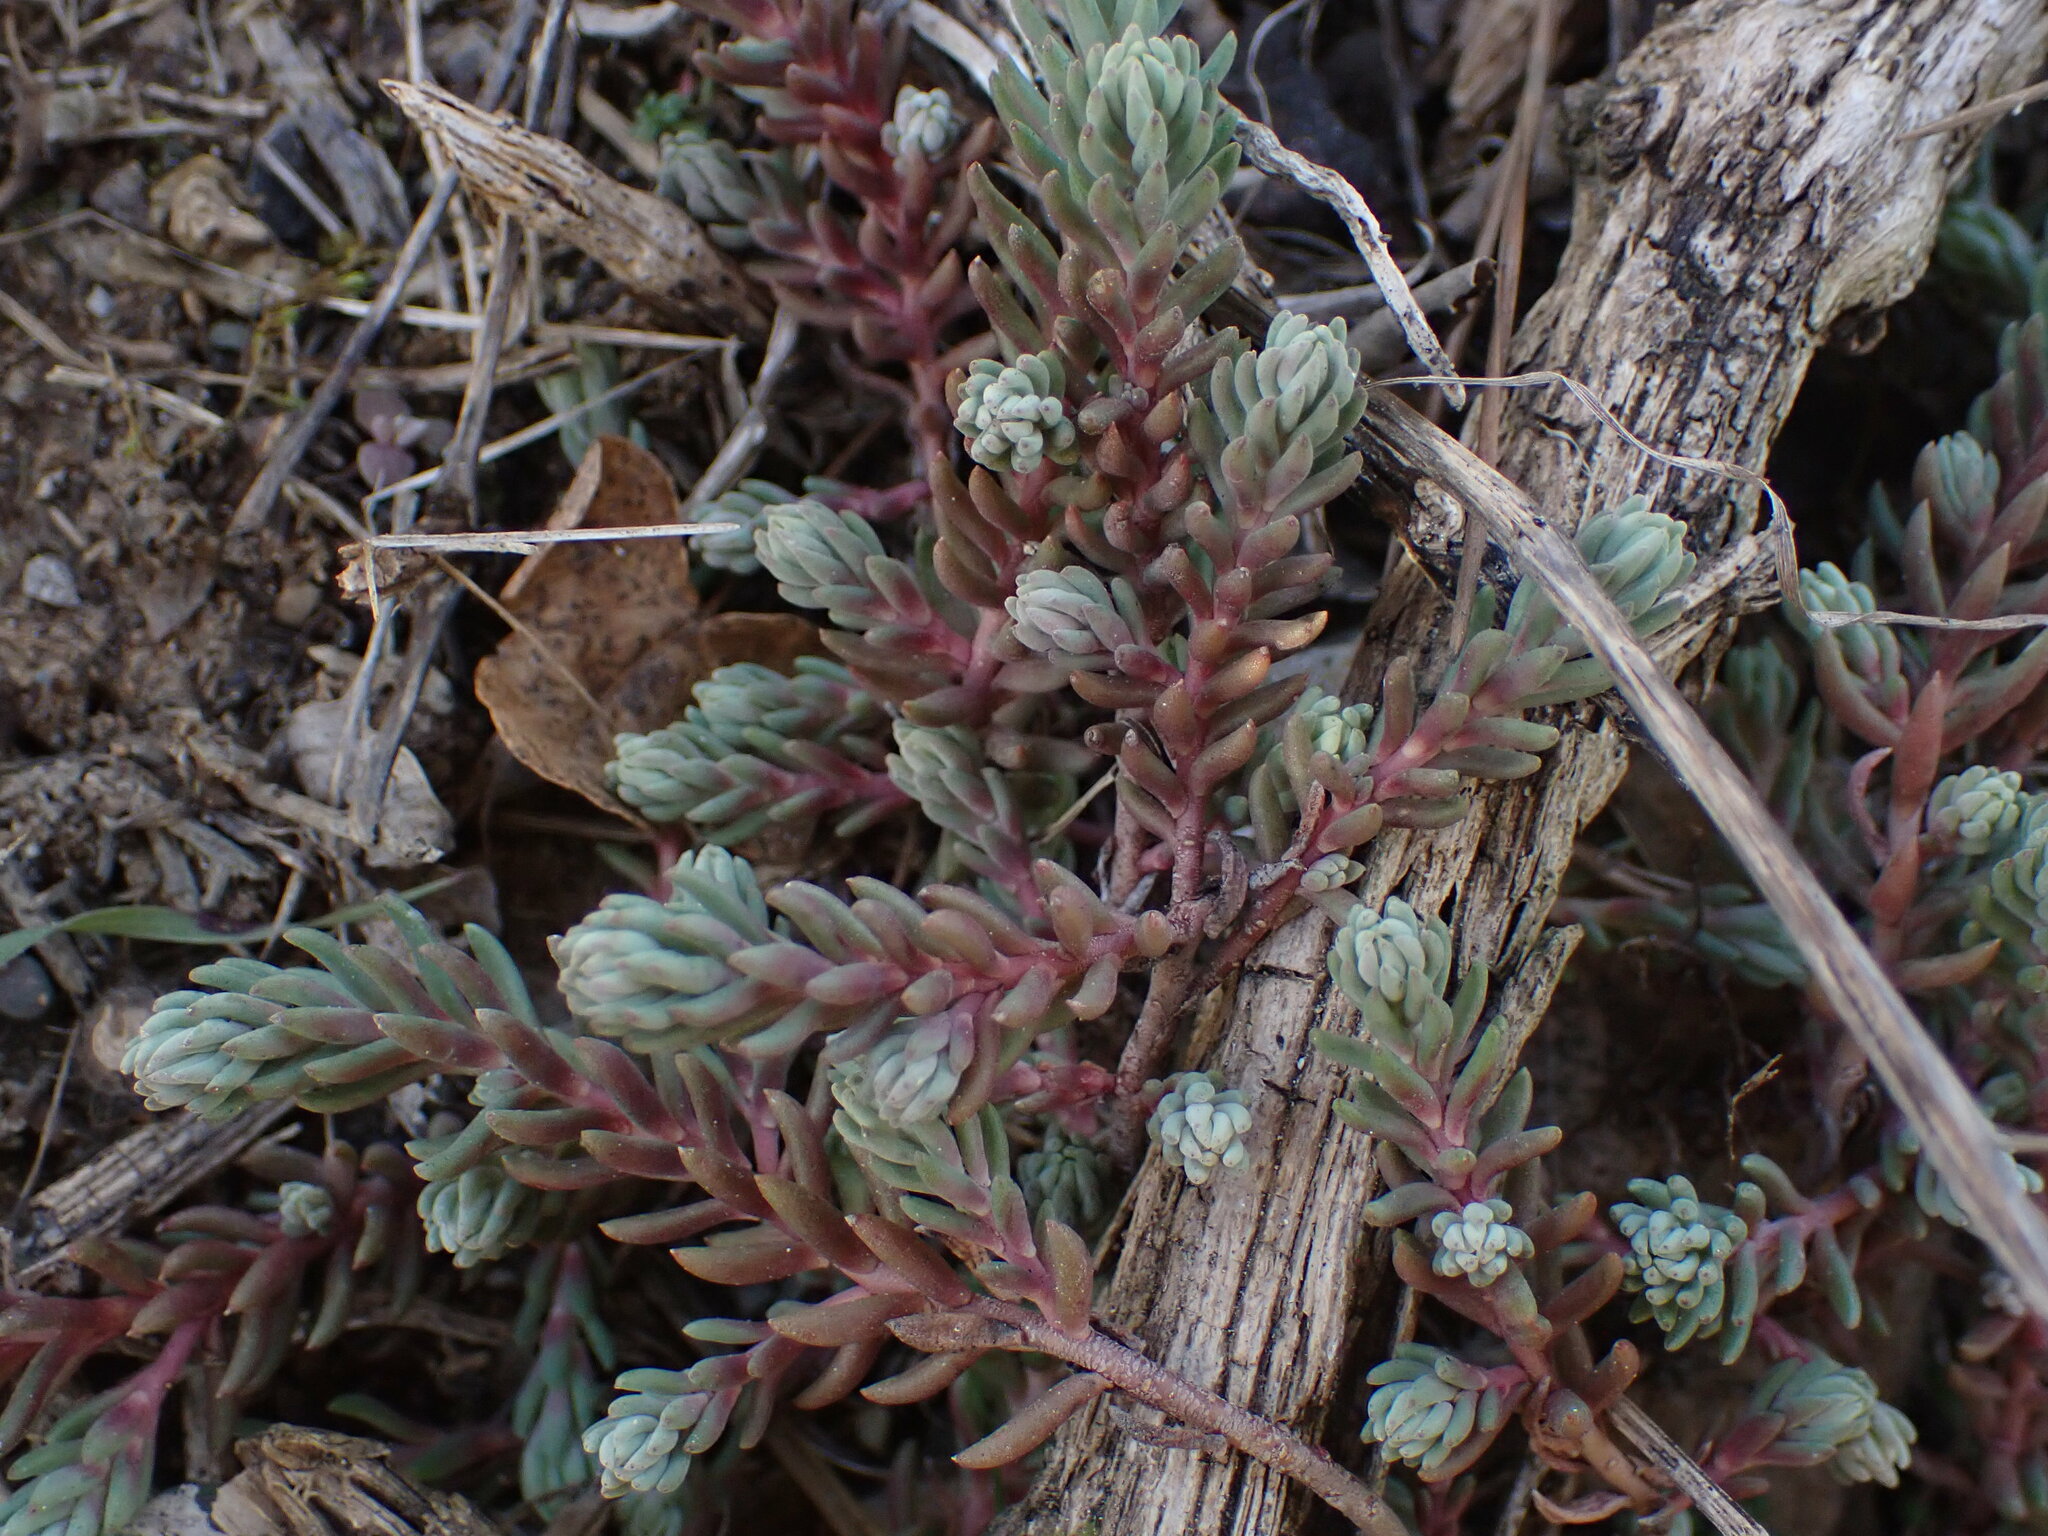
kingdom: Plantae
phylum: Tracheophyta
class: Magnoliopsida
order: Saxifragales
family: Crassulaceae
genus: Petrosedum
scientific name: Petrosedum ochroleucum
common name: European stonecrop
